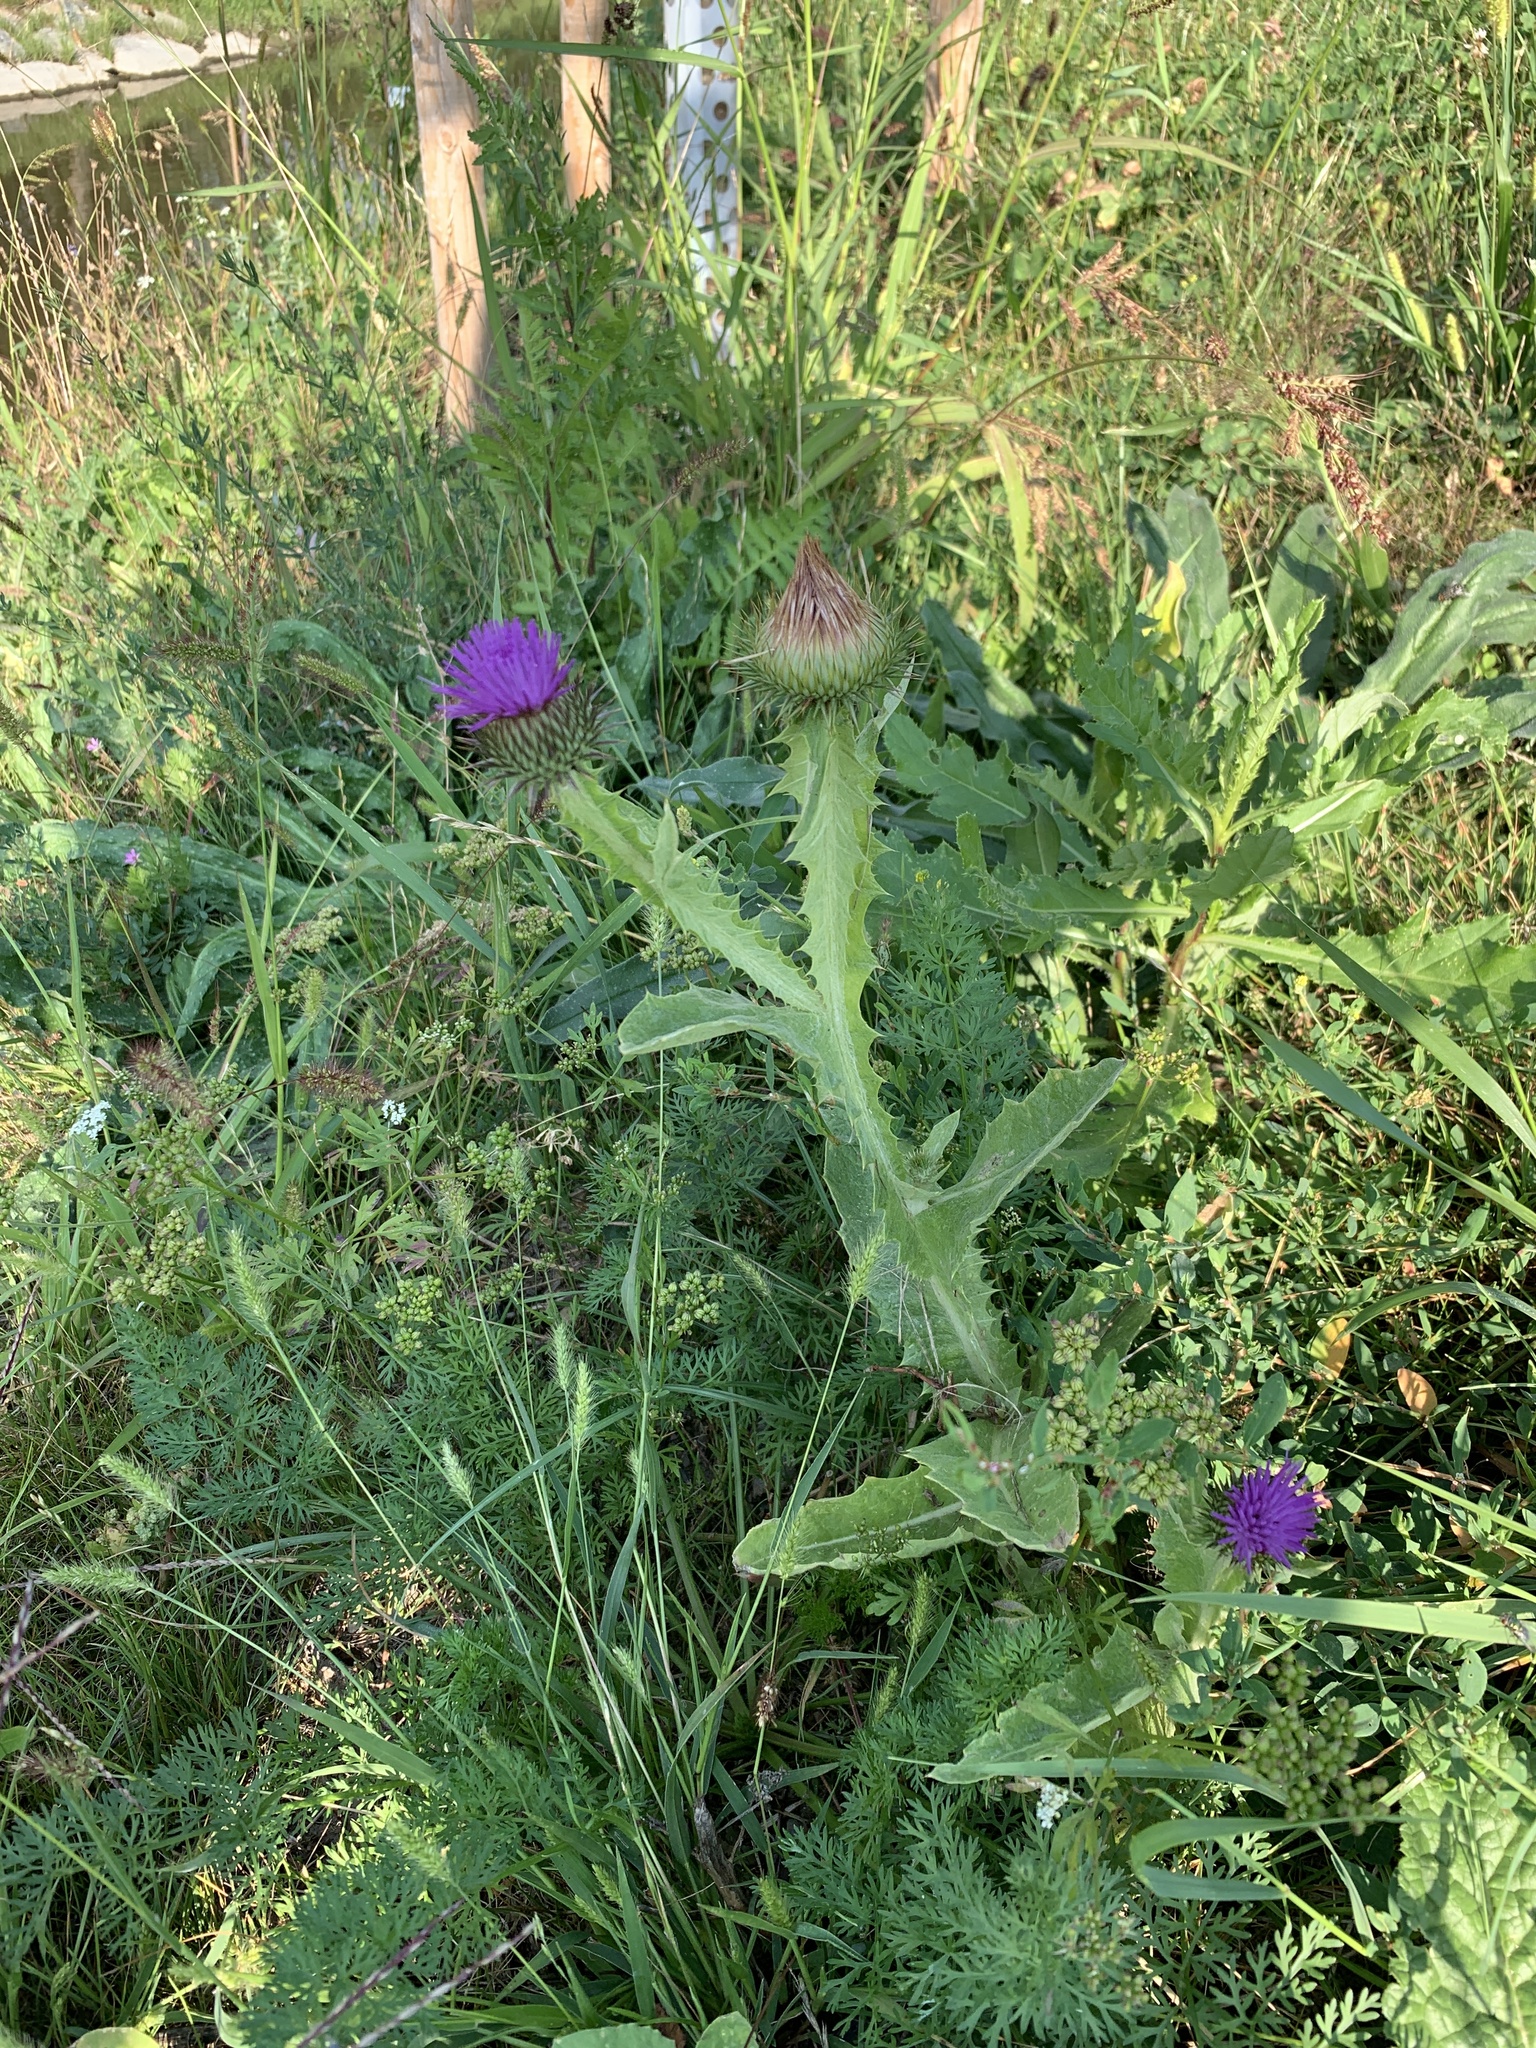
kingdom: Plantae
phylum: Tracheophyta
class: Magnoliopsida
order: Asterales
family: Asteraceae
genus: Onopordum
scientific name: Onopordum acanthium
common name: Scotch thistle
